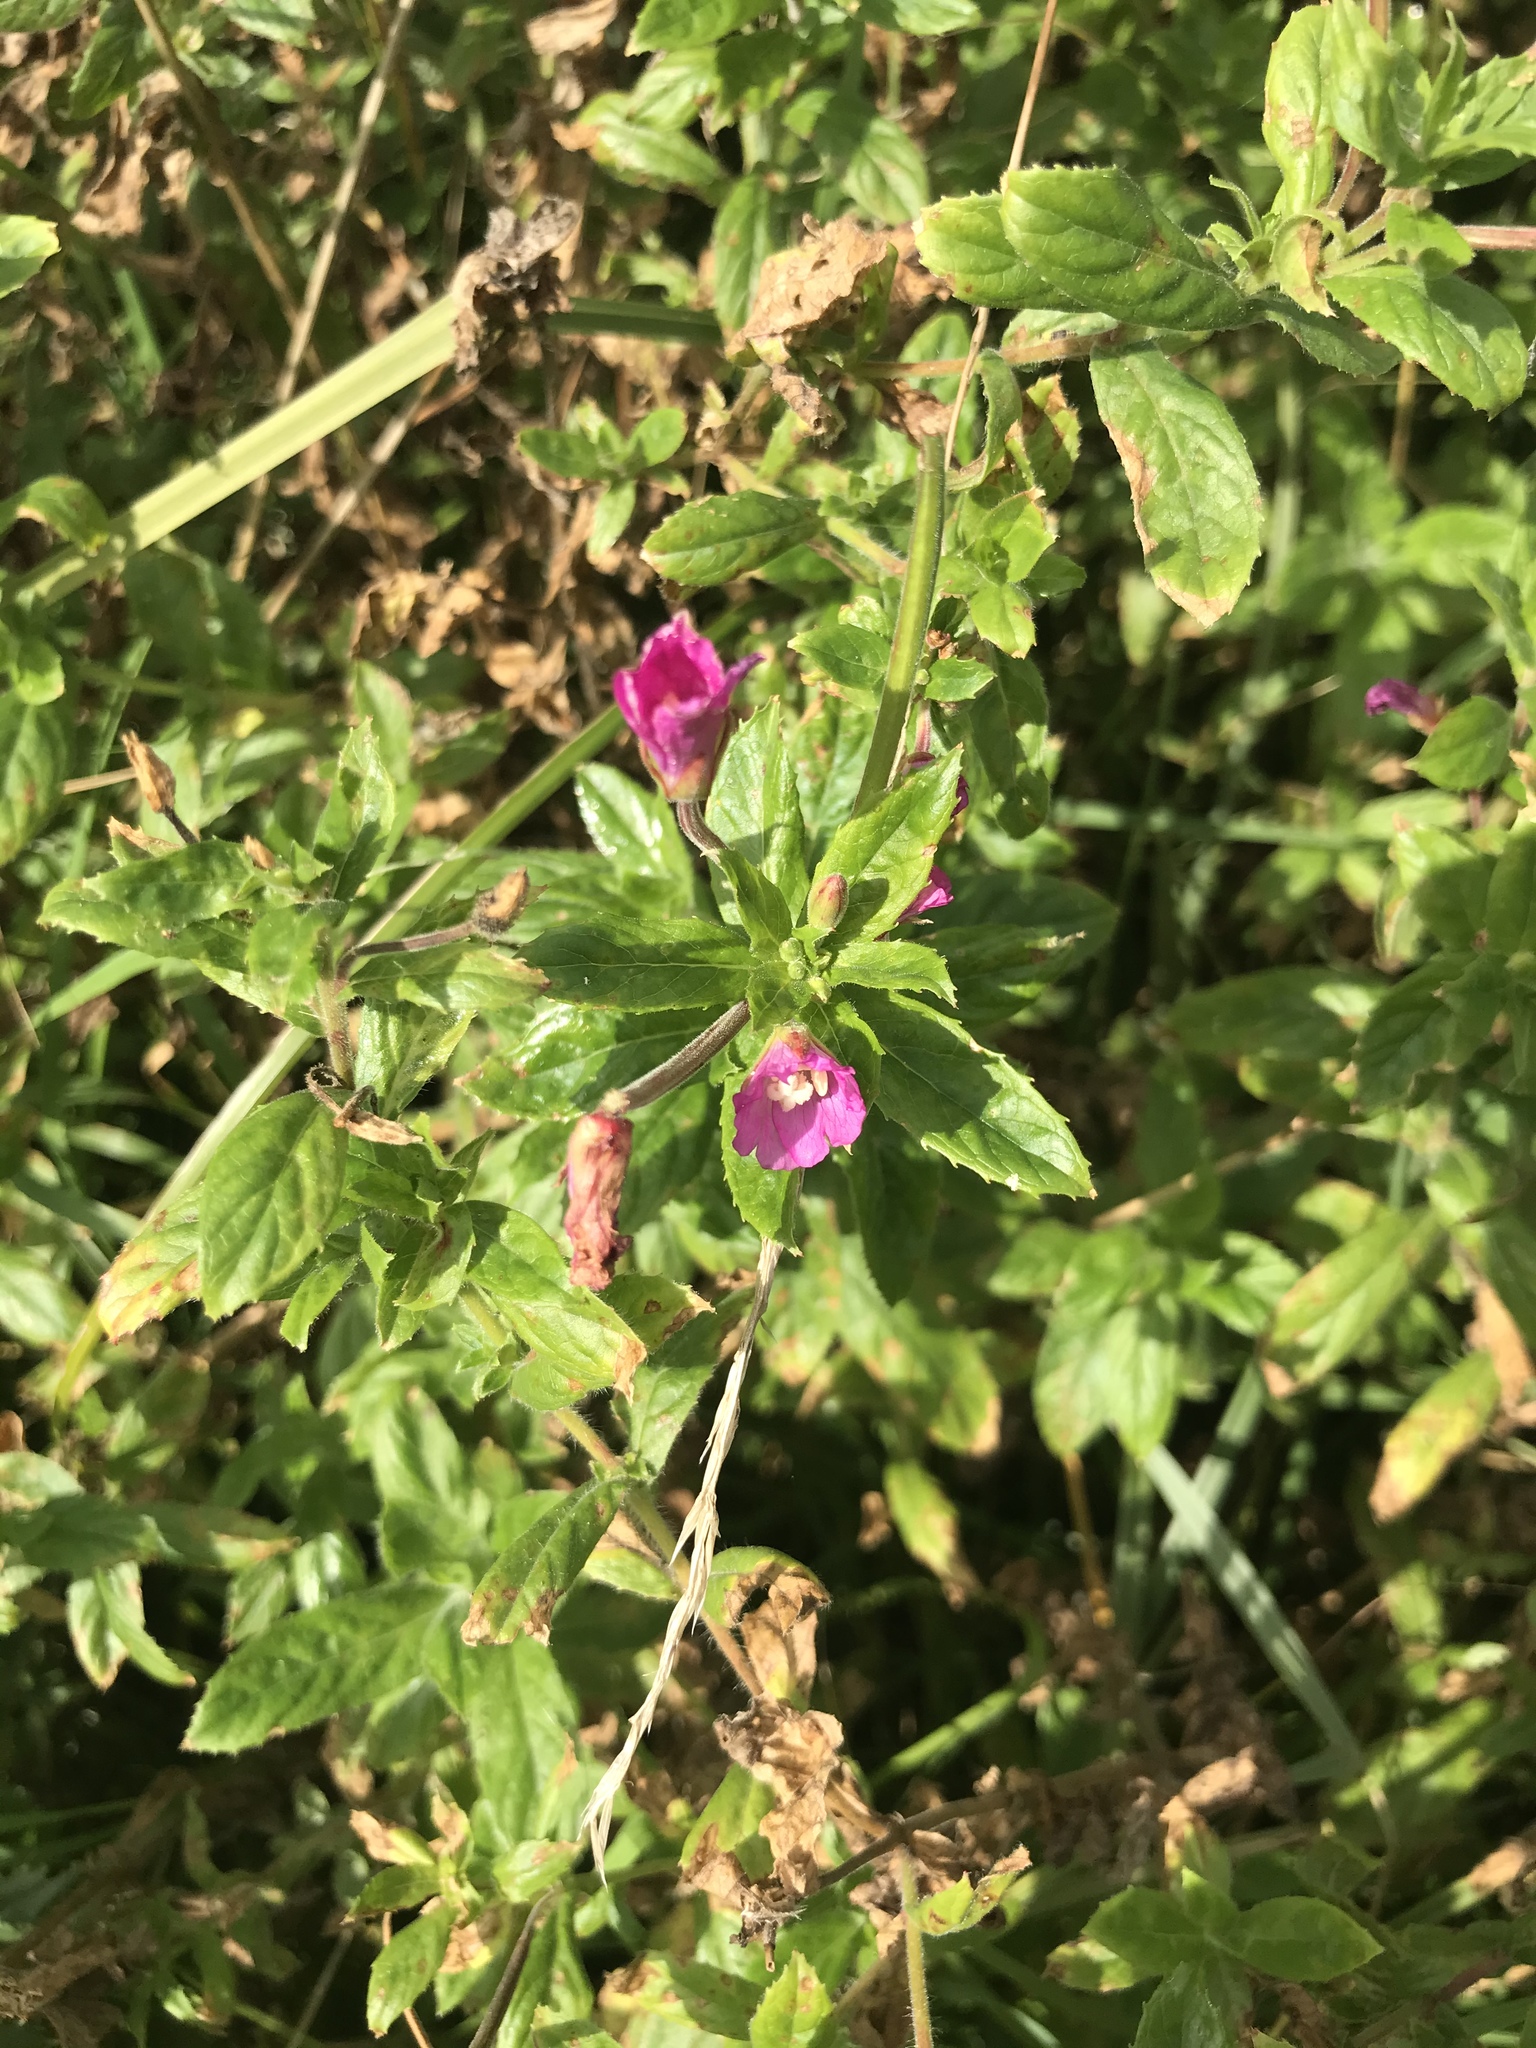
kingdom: Plantae
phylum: Tracheophyta
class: Magnoliopsida
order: Myrtales
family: Onagraceae
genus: Epilobium
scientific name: Epilobium hirsutum
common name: Great willowherb
